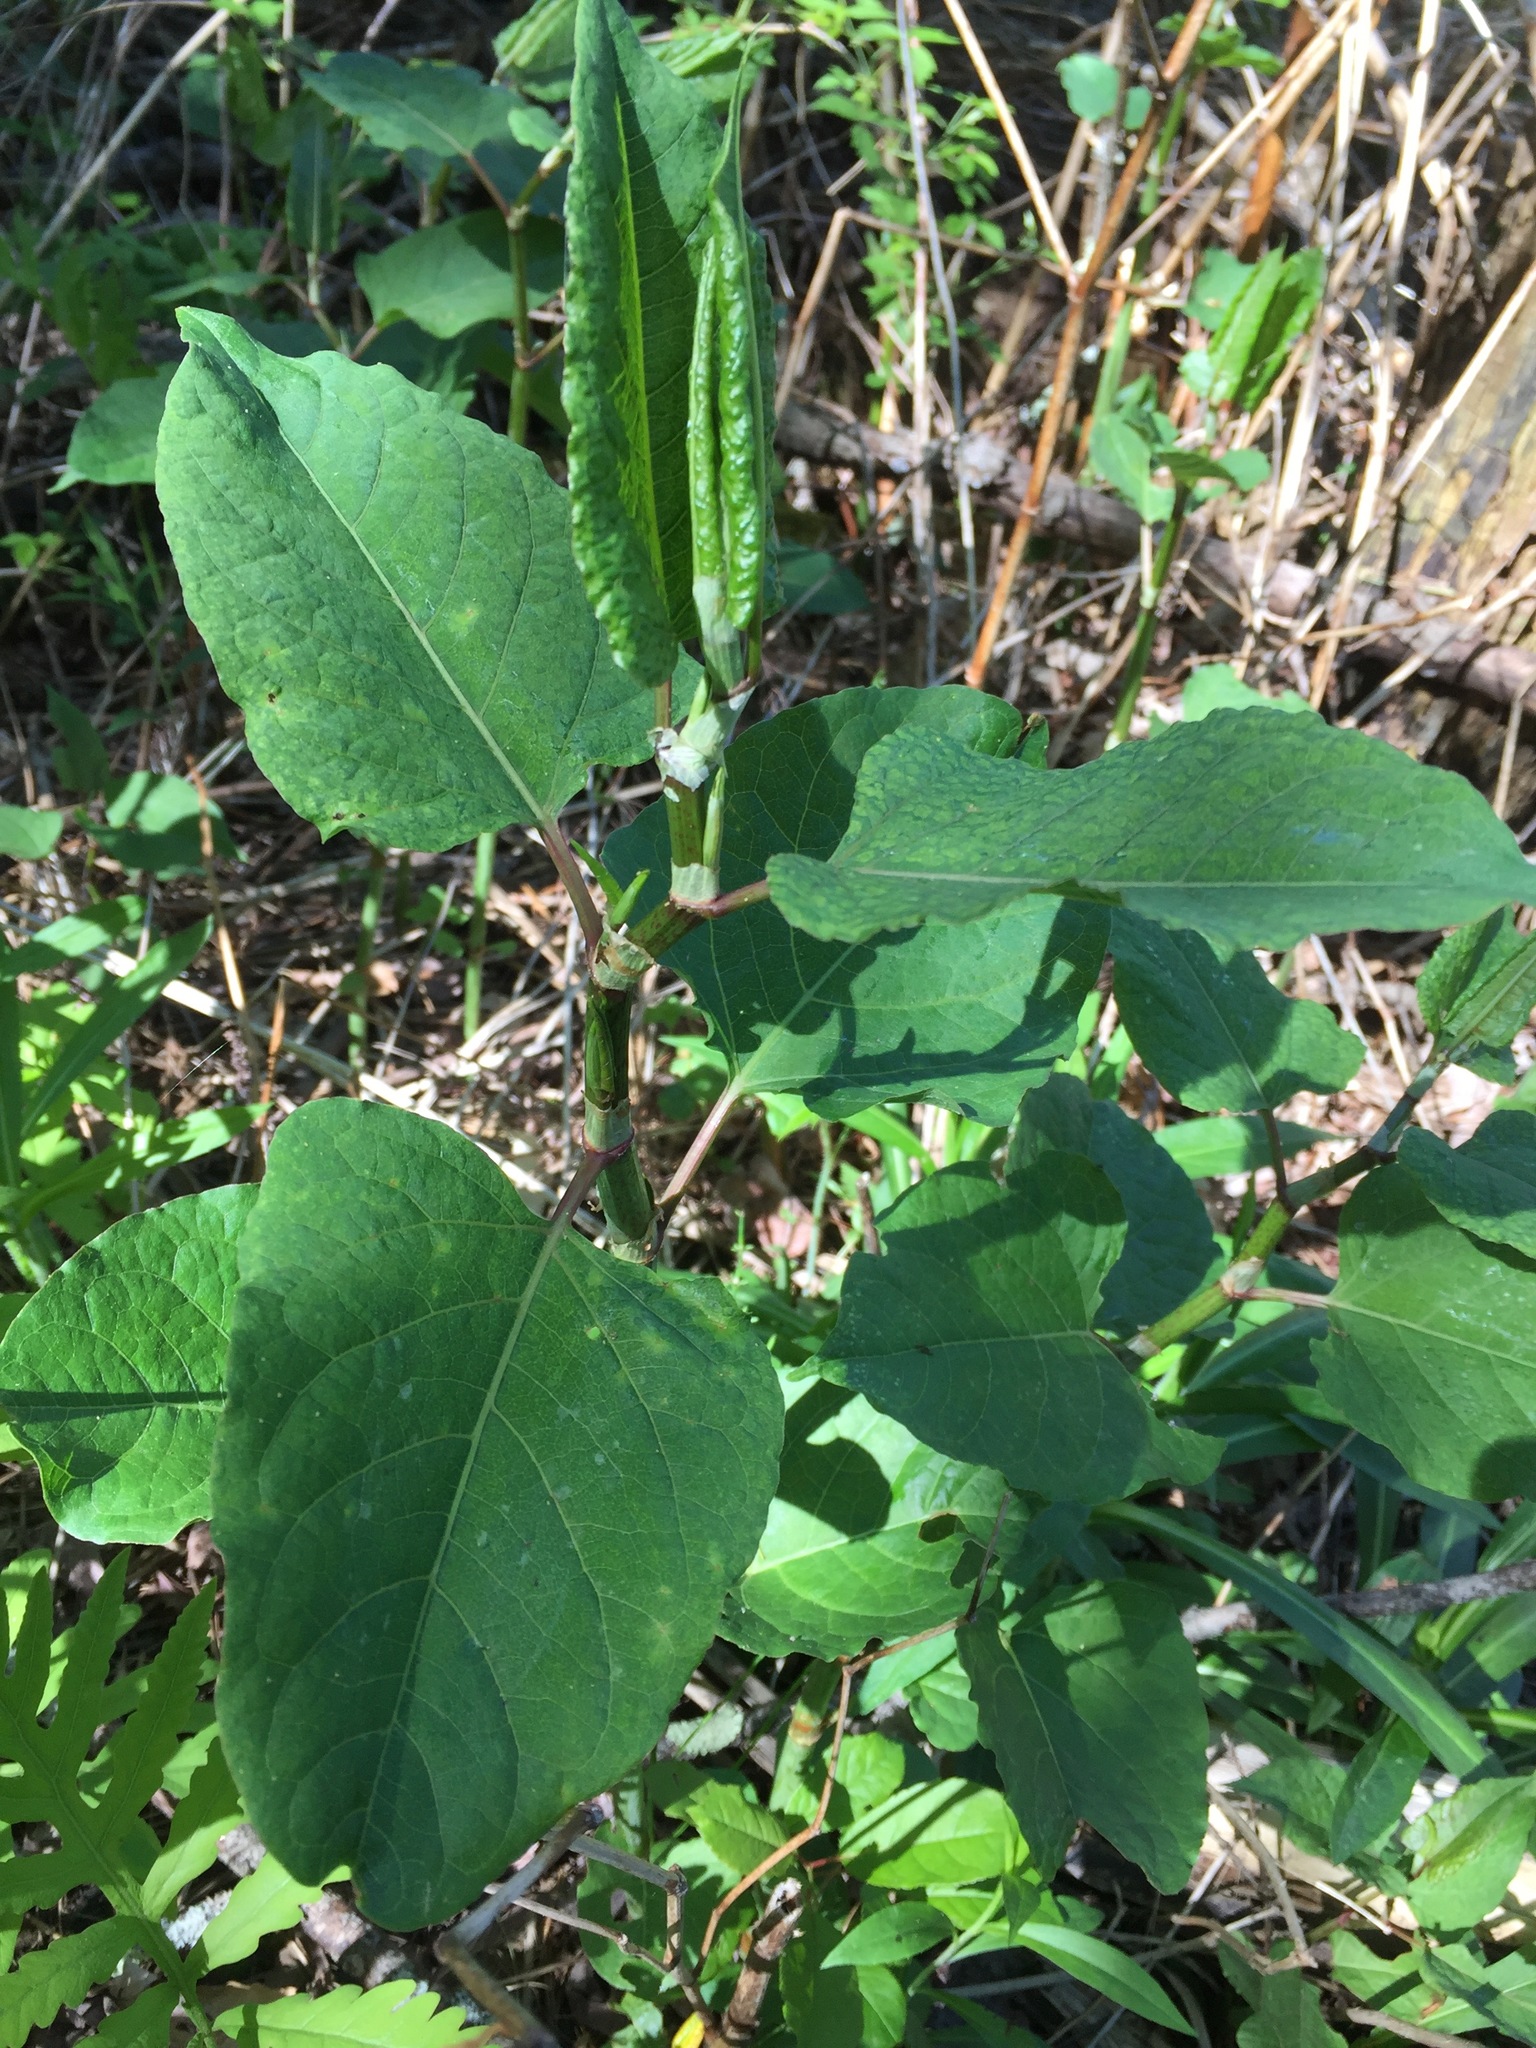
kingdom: Plantae
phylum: Tracheophyta
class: Magnoliopsida
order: Caryophyllales
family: Polygonaceae
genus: Reynoutria
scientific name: Reynoutria japonica
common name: Japanese knotweed
